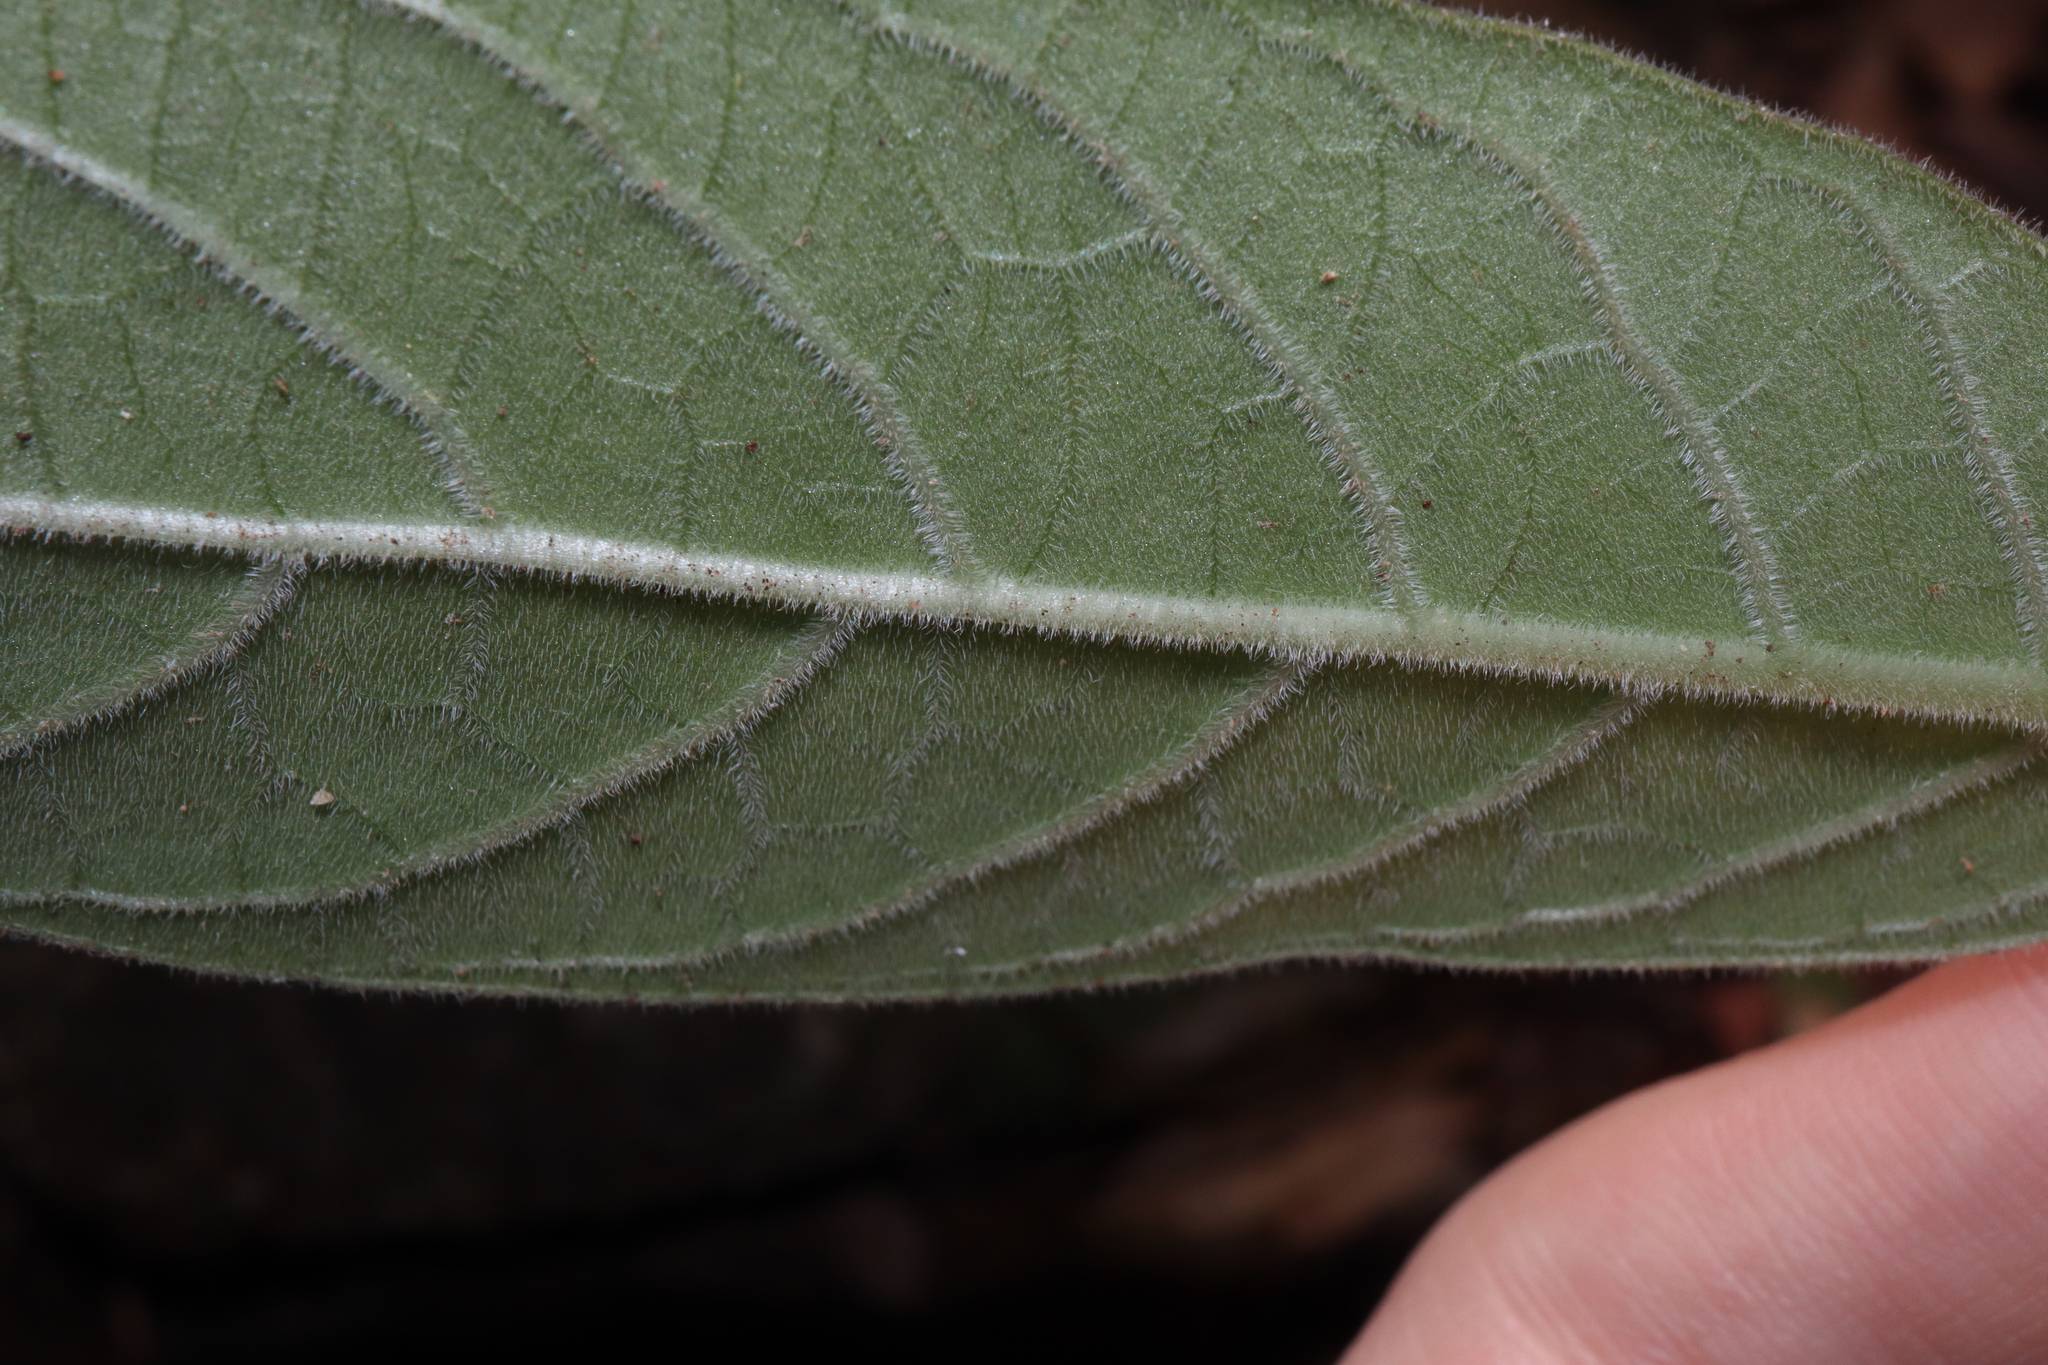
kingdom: Plantae
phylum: Tracheophyta
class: Magnoliopsida
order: Gentianales
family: Rubiaceae
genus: Psychotria
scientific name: Psychotria loniceroides
